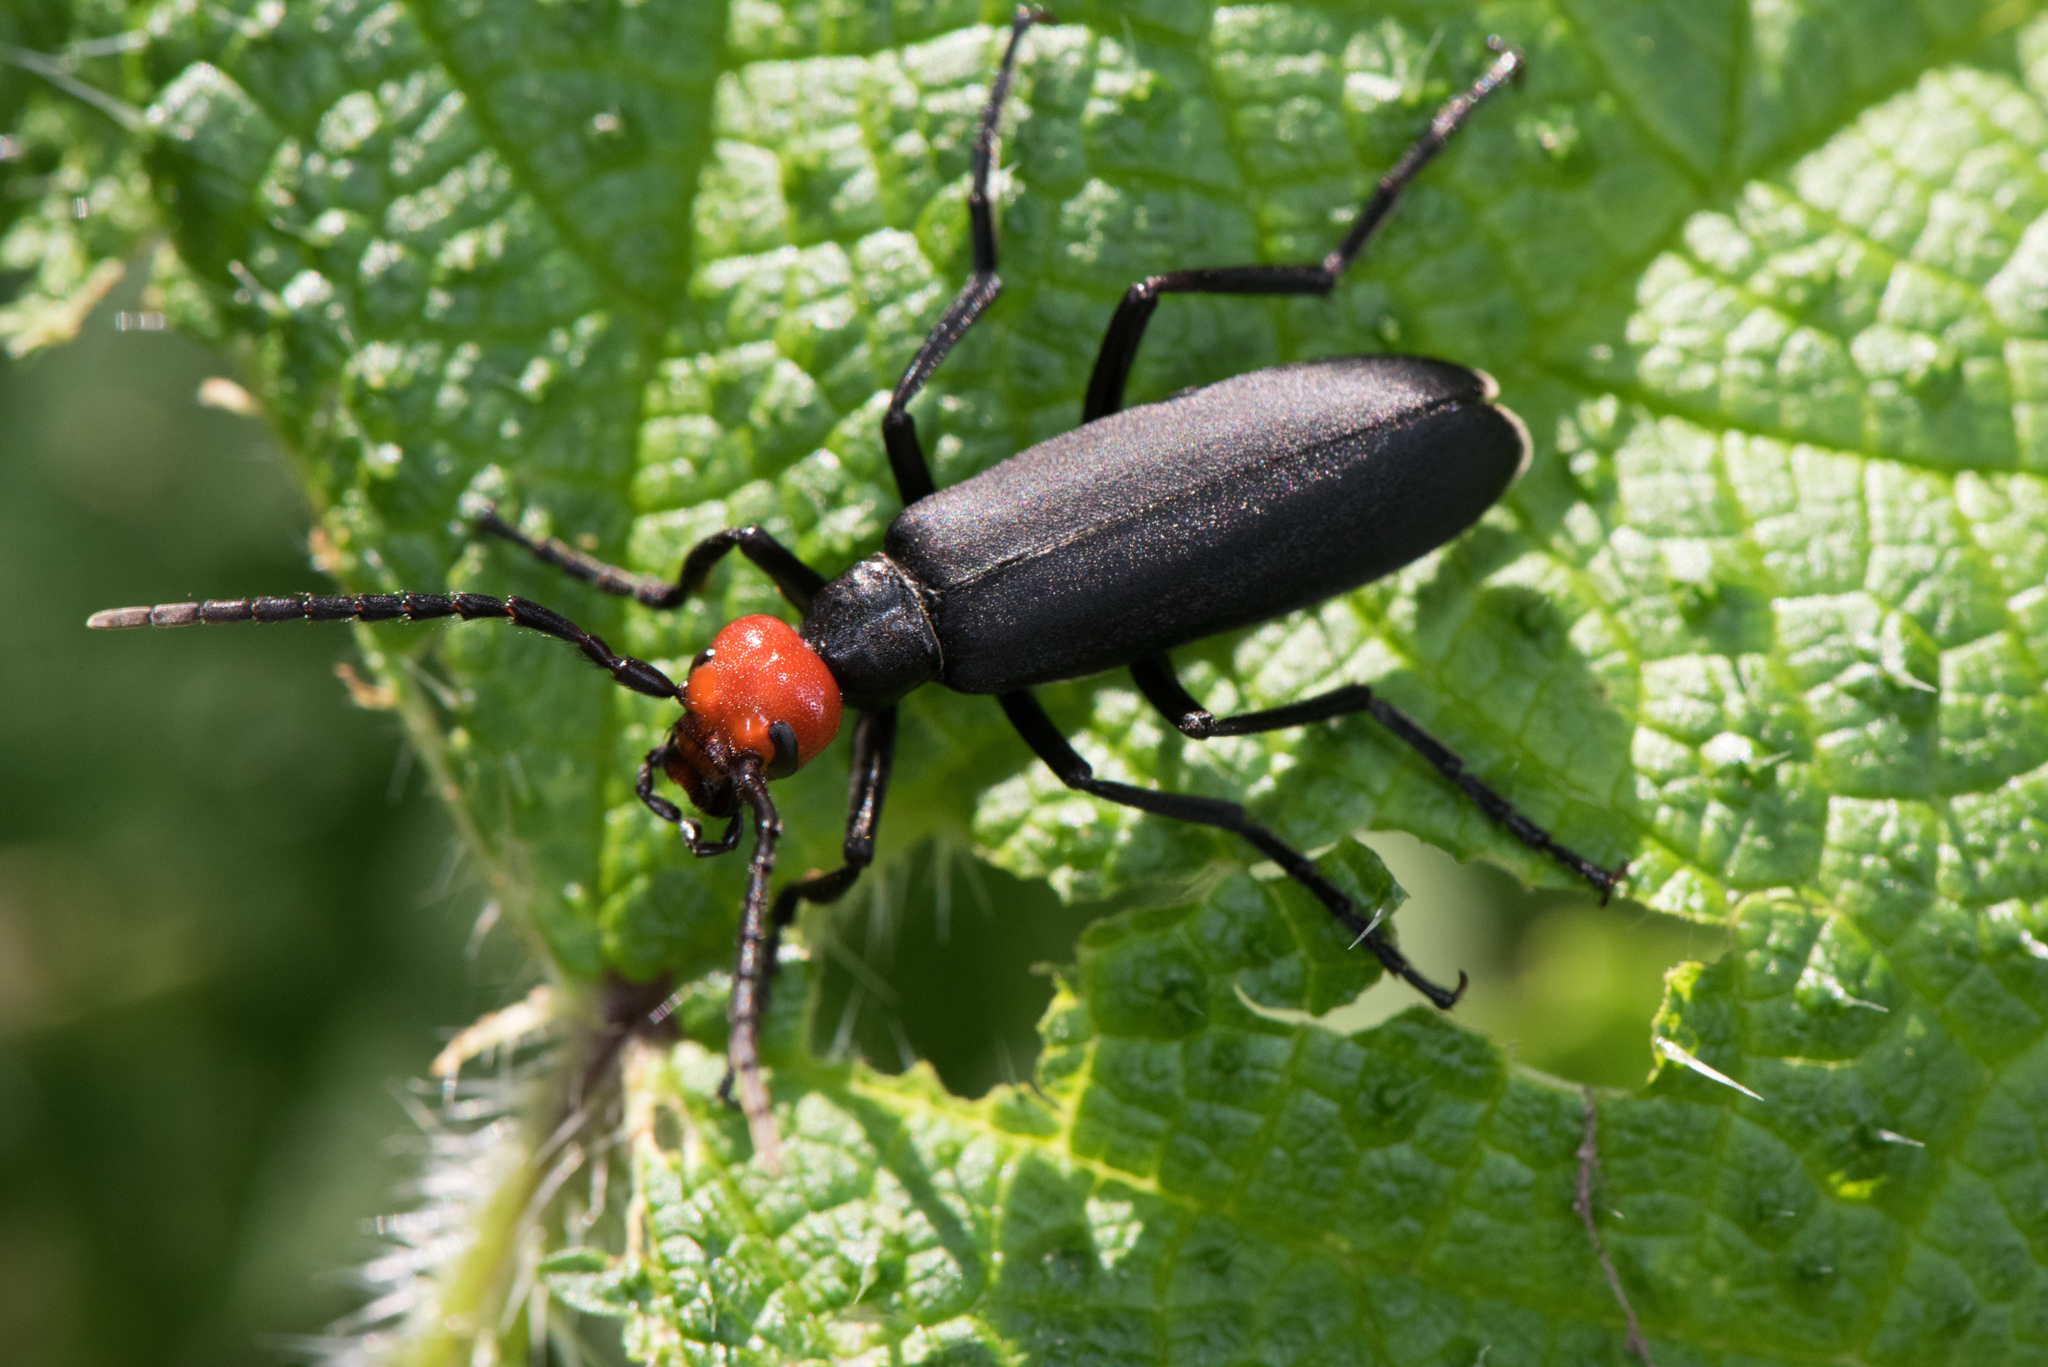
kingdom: Animalia
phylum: Arthropoda
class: Insecta
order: Coleoptera
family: Meloidae
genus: Epicauta
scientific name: Epicauta hirticornis
